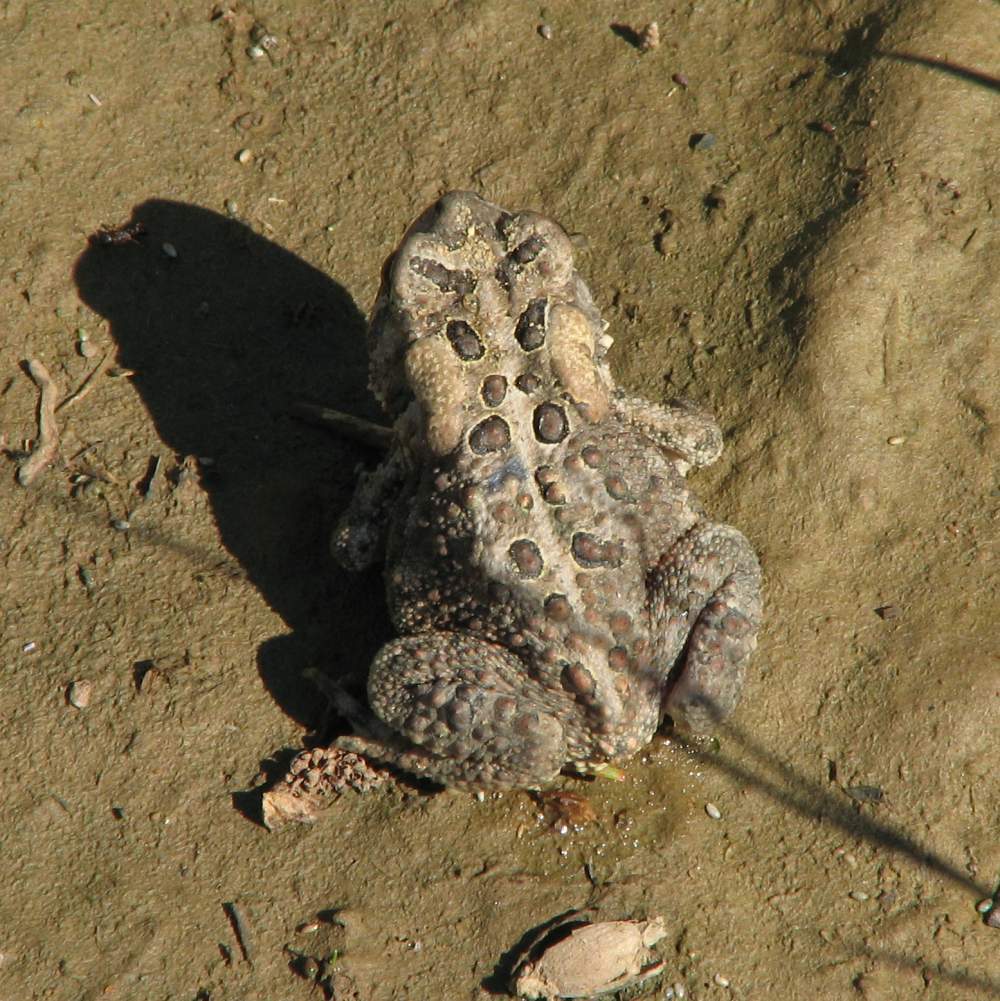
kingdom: Animalia
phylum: Chordata
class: Amphibia
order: Anura
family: Bufonidae
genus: Anaxyrus
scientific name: Anaxyrus americanus
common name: American toad
